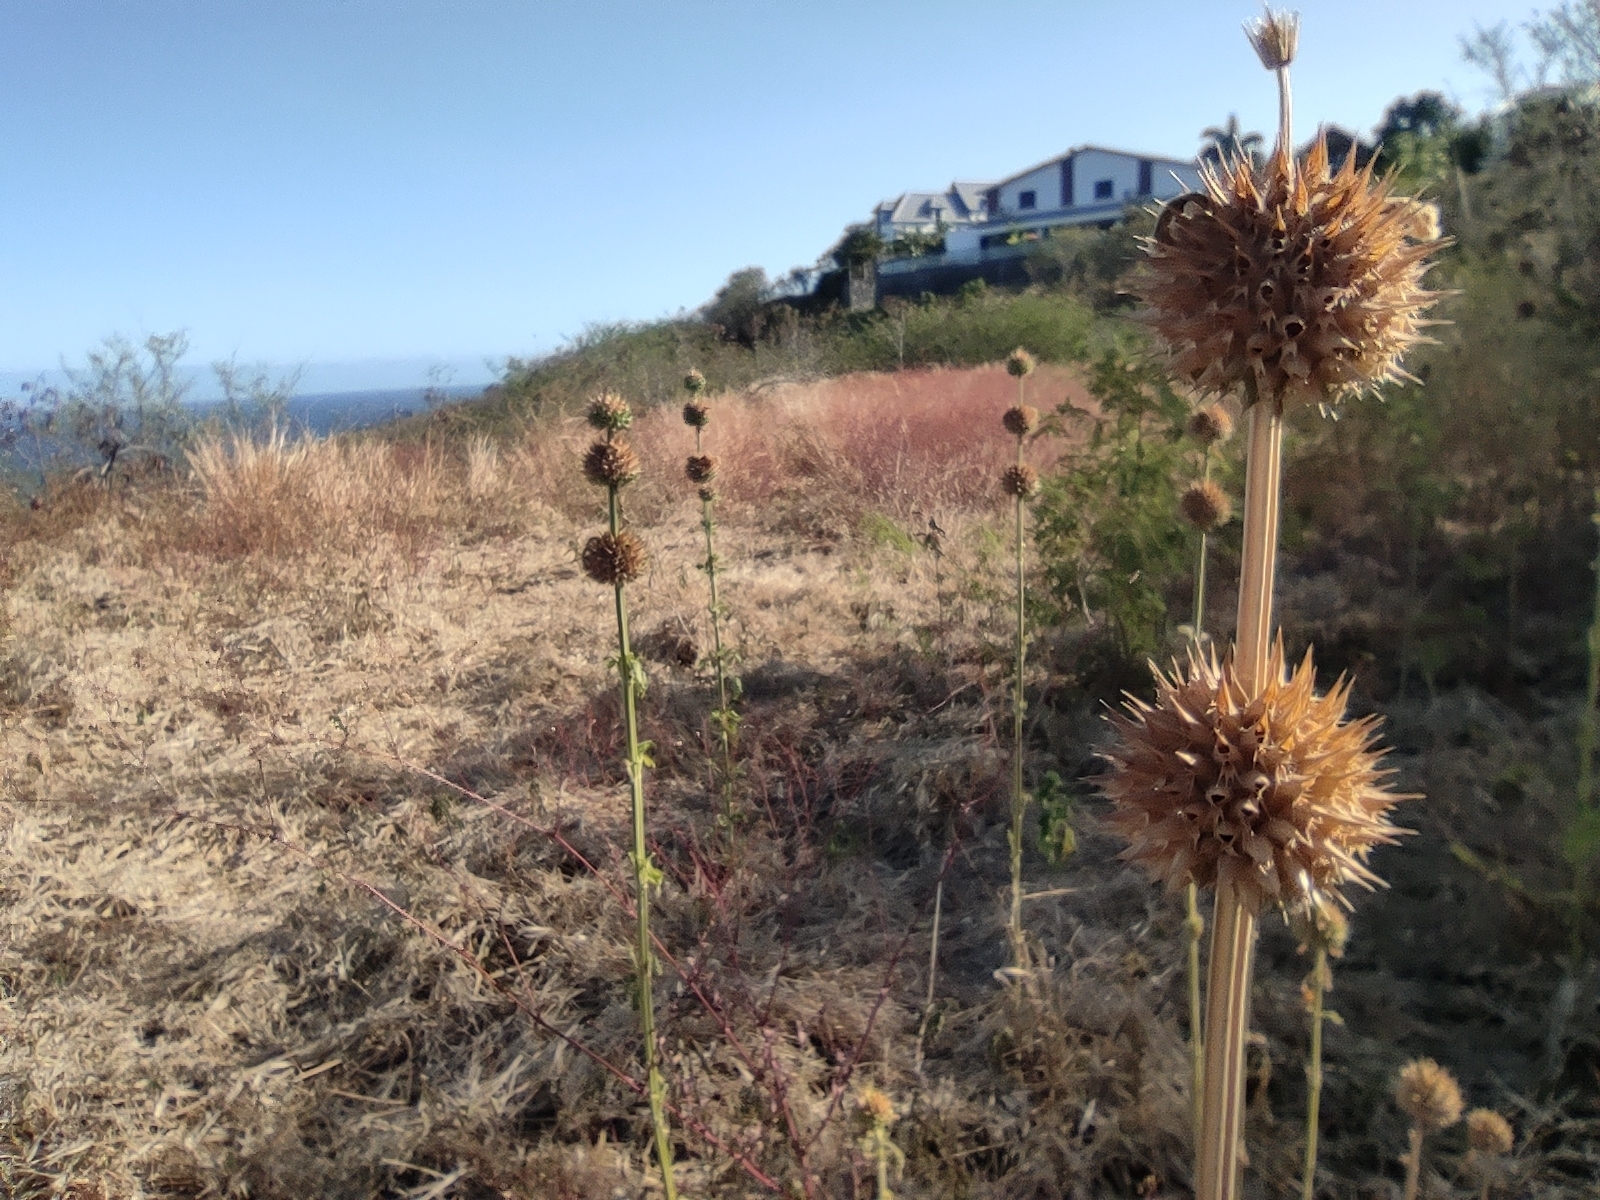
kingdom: Plantae
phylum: Tracheophyta
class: Magnoliopsida
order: Lamiales
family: Lamiaceae
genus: Leonotis
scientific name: Leonotis nepetifolia
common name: Christmas candlestick
